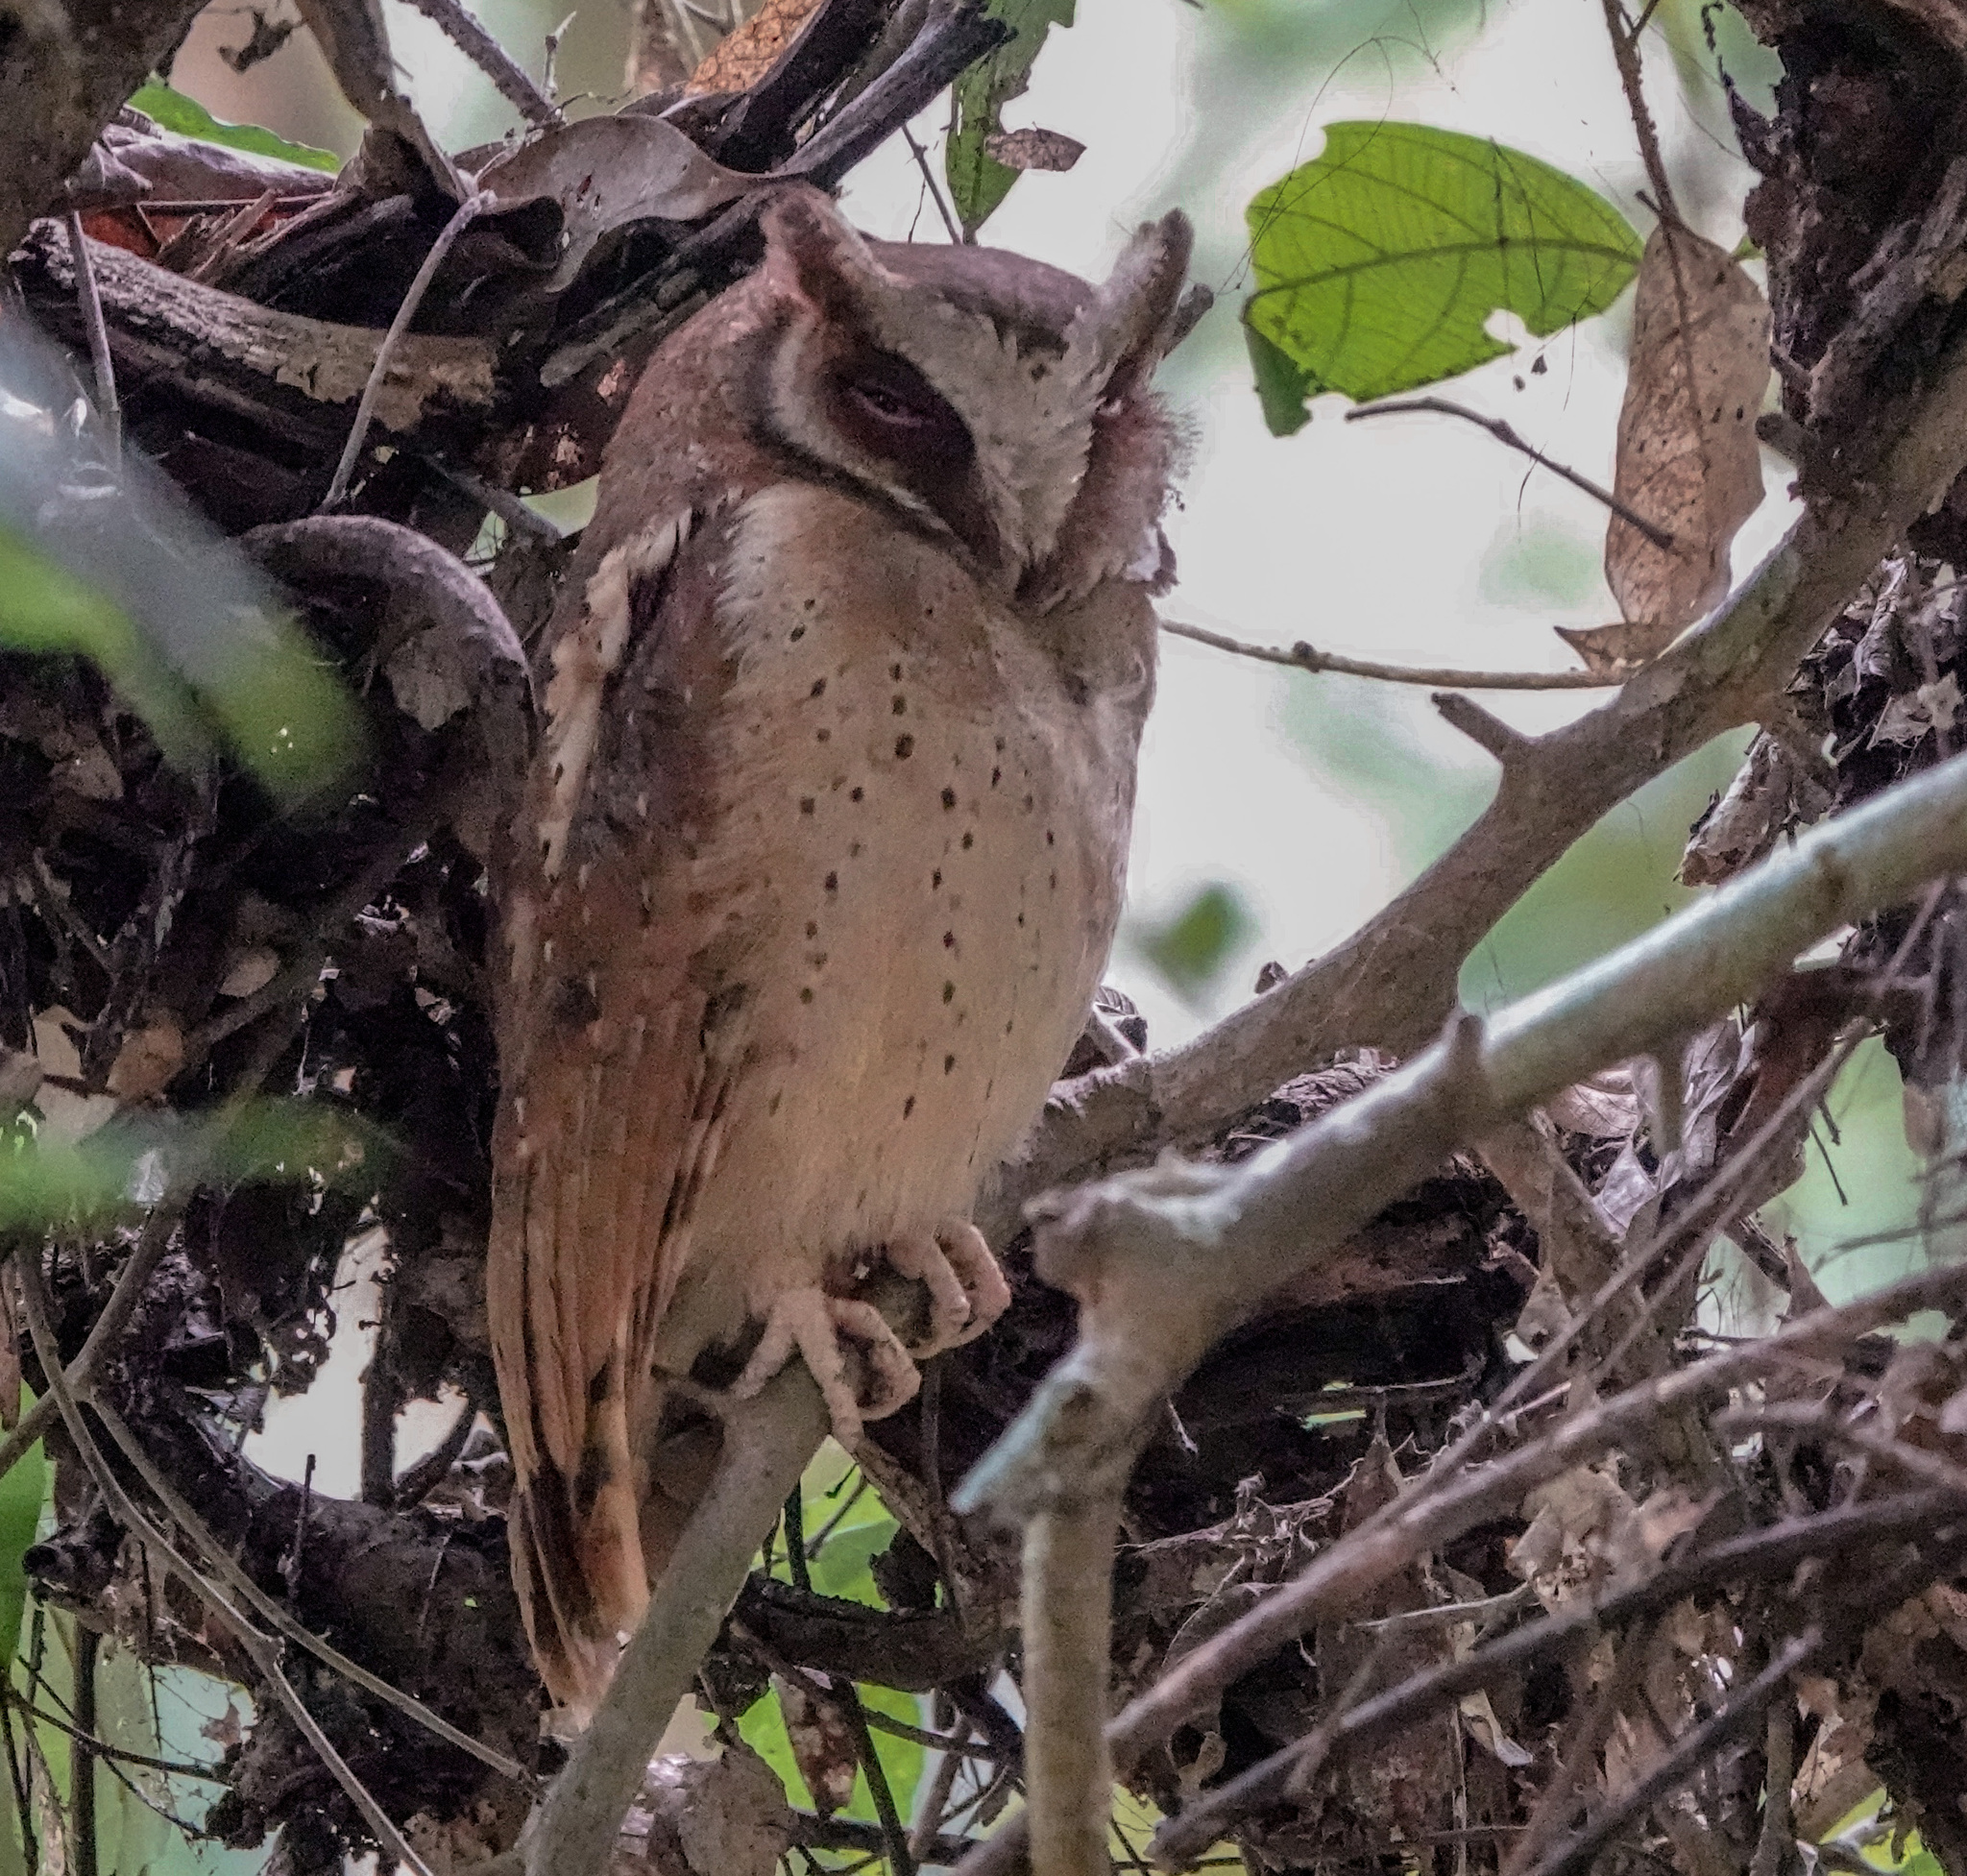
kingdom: Animalia
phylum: Chordata
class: Aves
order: Strigiformes
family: Strigidae
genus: Otus
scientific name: Otus sagittatus
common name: White-fronted scops owl
